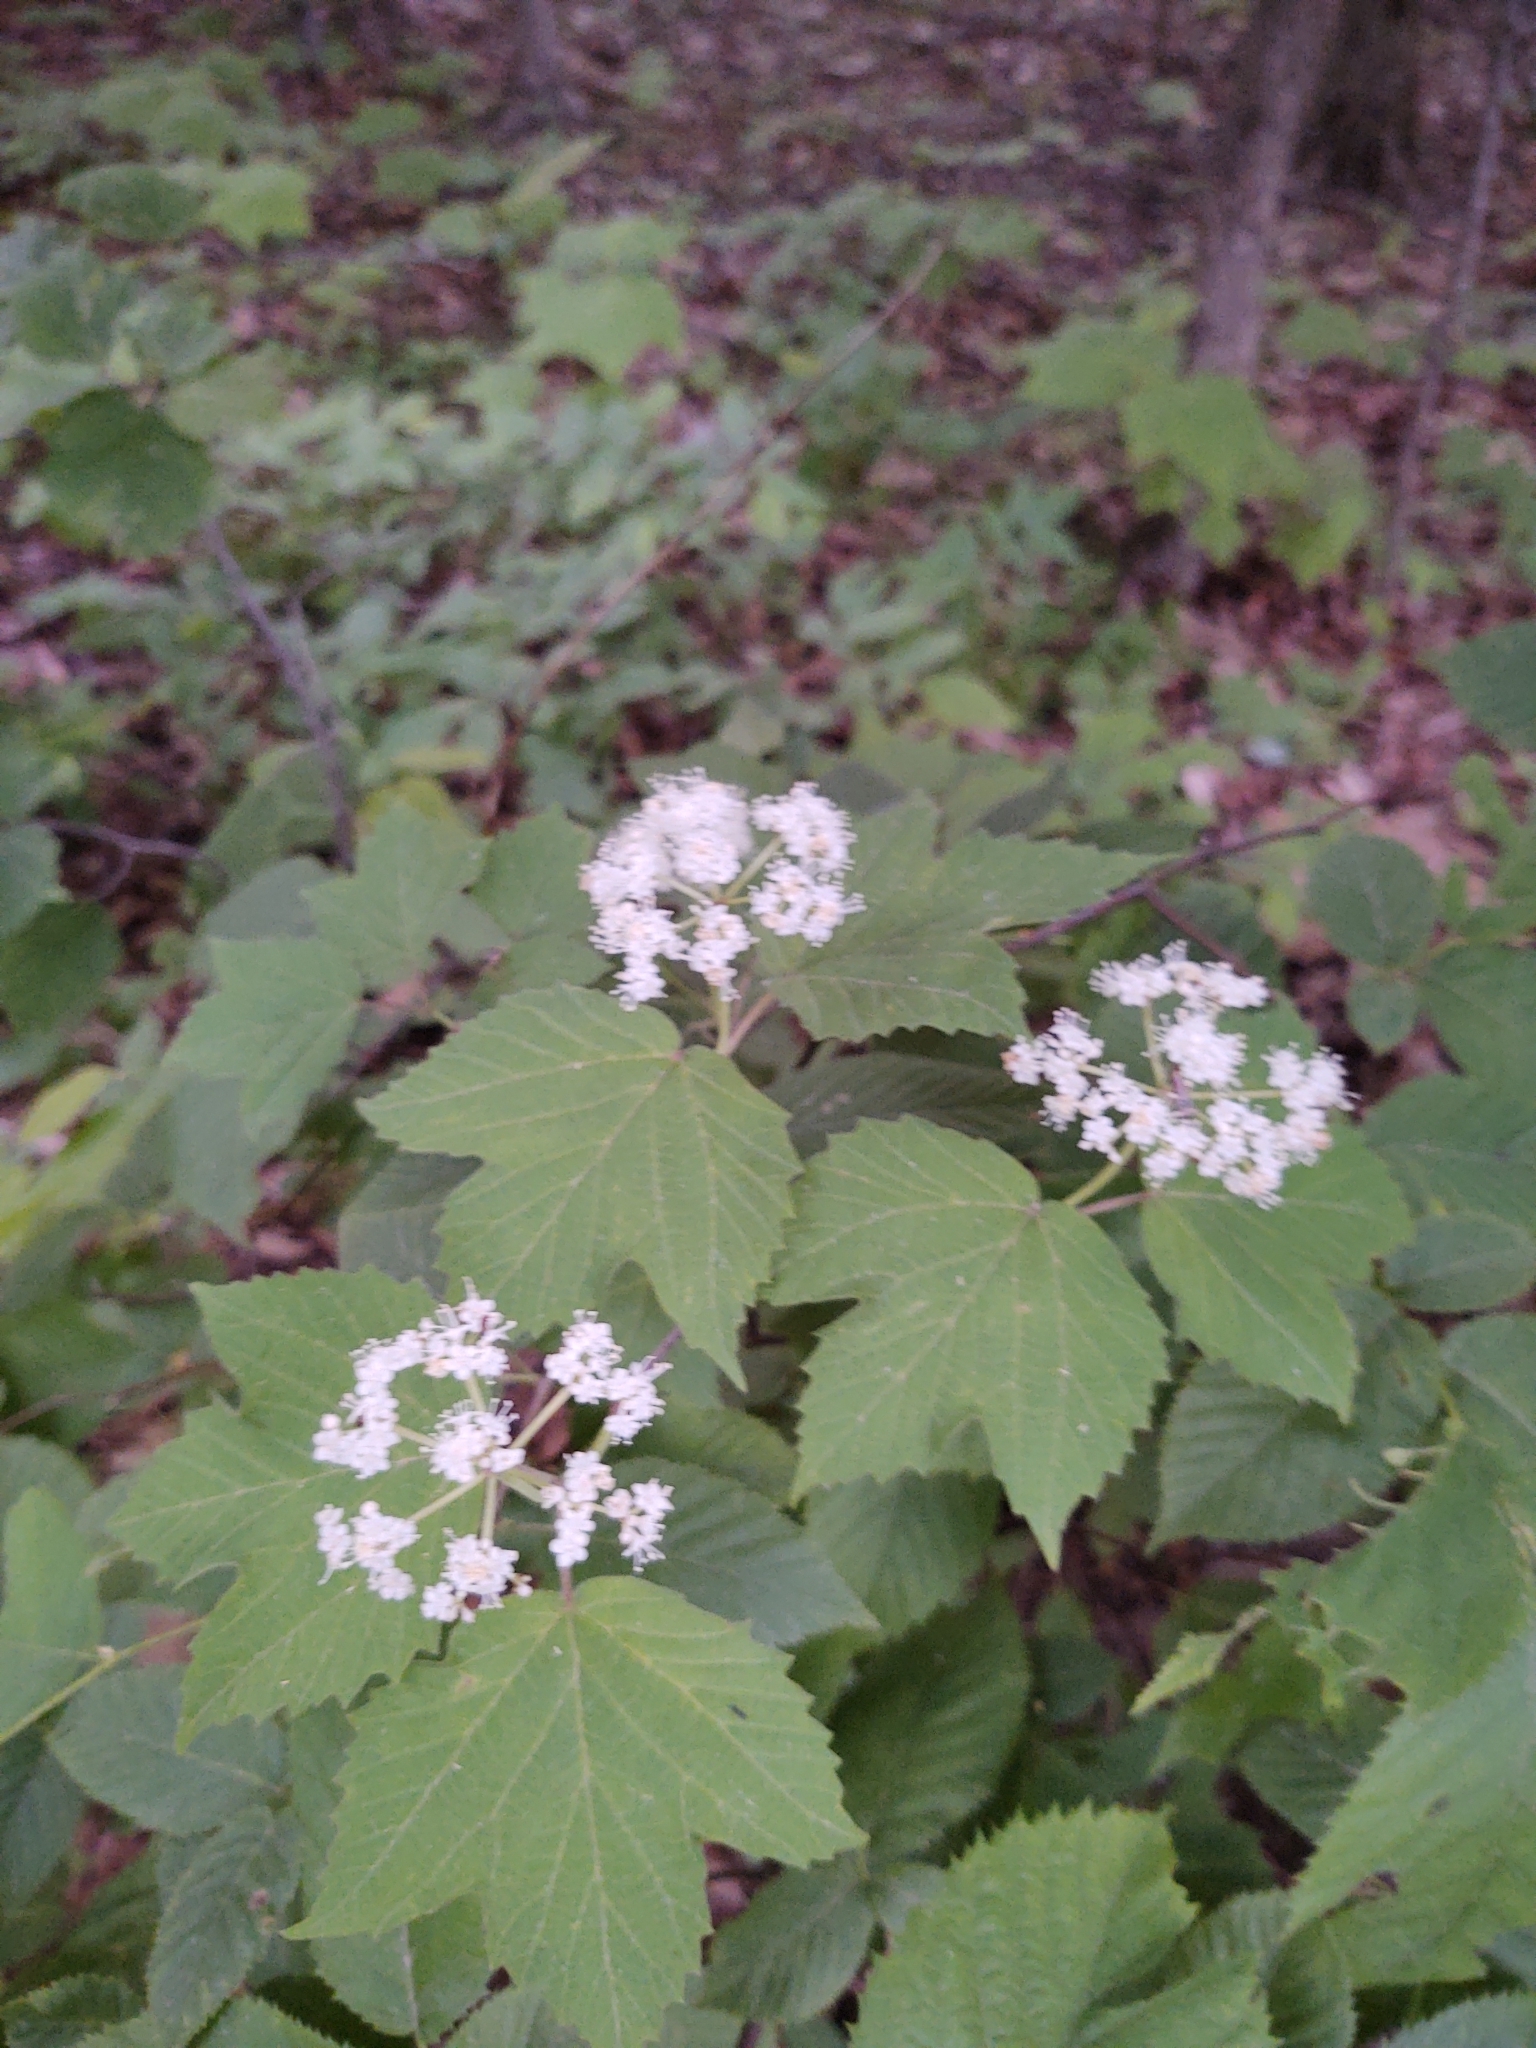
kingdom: Plantae
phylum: Tracheophyta
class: Magnoliopsida
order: Dipsacales
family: Viburnaceae
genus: Viburnum
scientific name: Viburnum acerifolium
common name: Dockmackie
